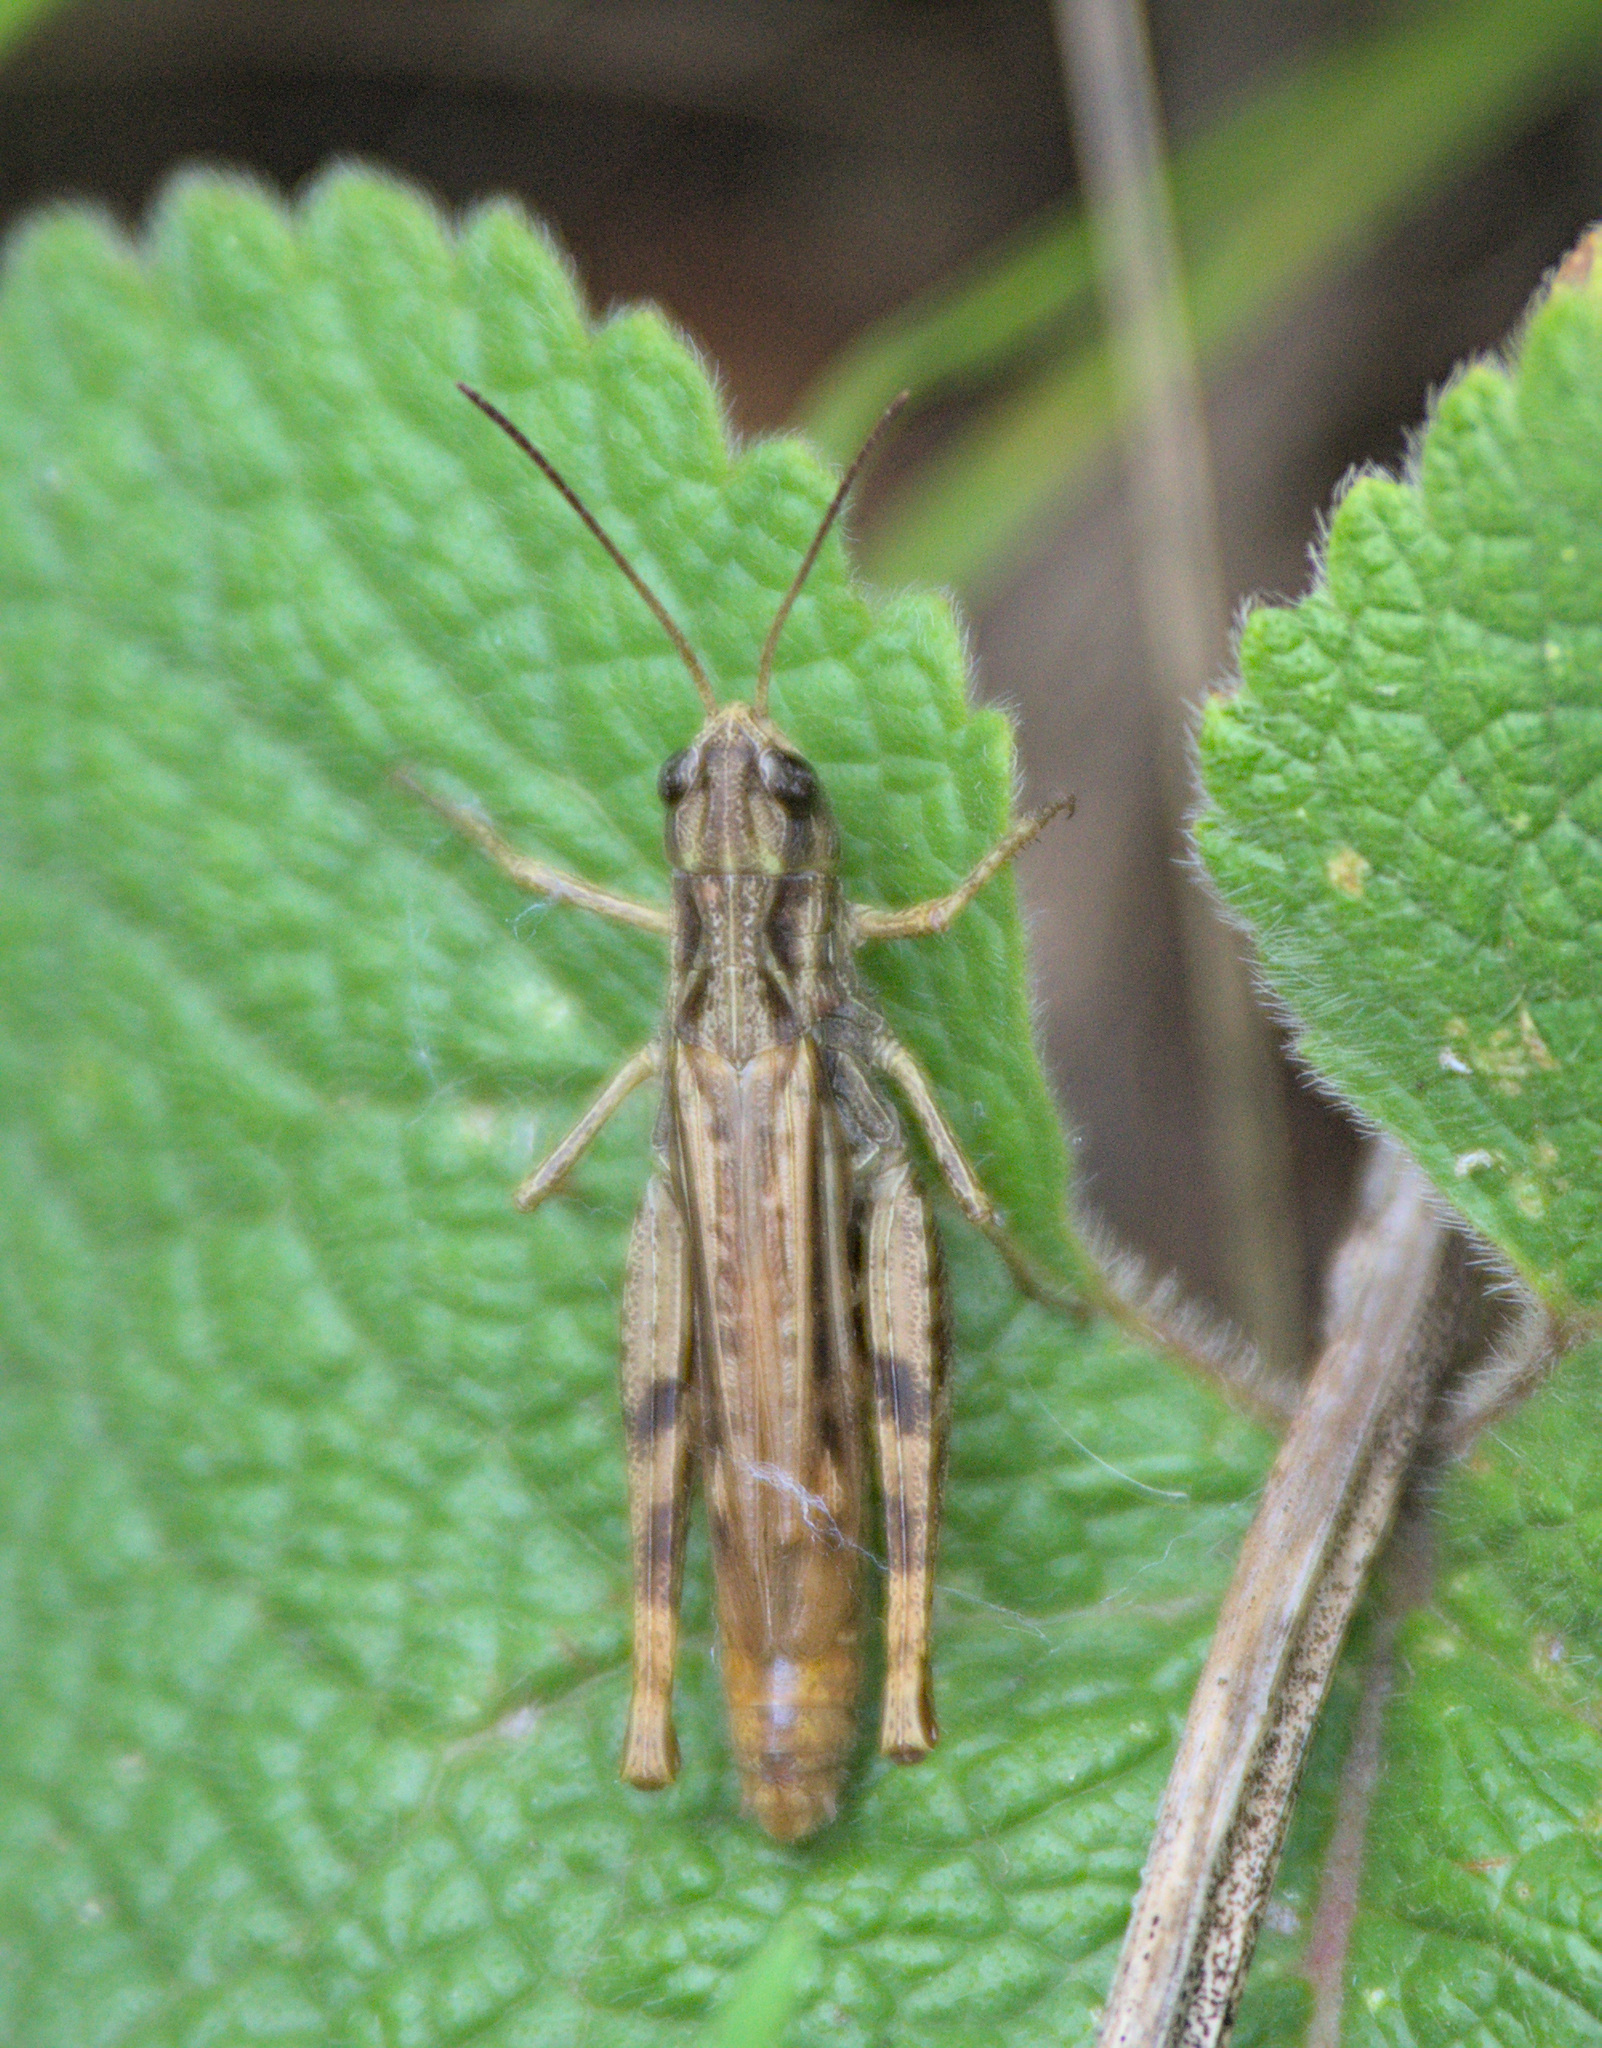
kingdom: Animalia
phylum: Arthropoda
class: Insecta
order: Orthoptera
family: Acrididae
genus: Chorthippus
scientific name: Chorthippus apricarius
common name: Upland field grasshopper
